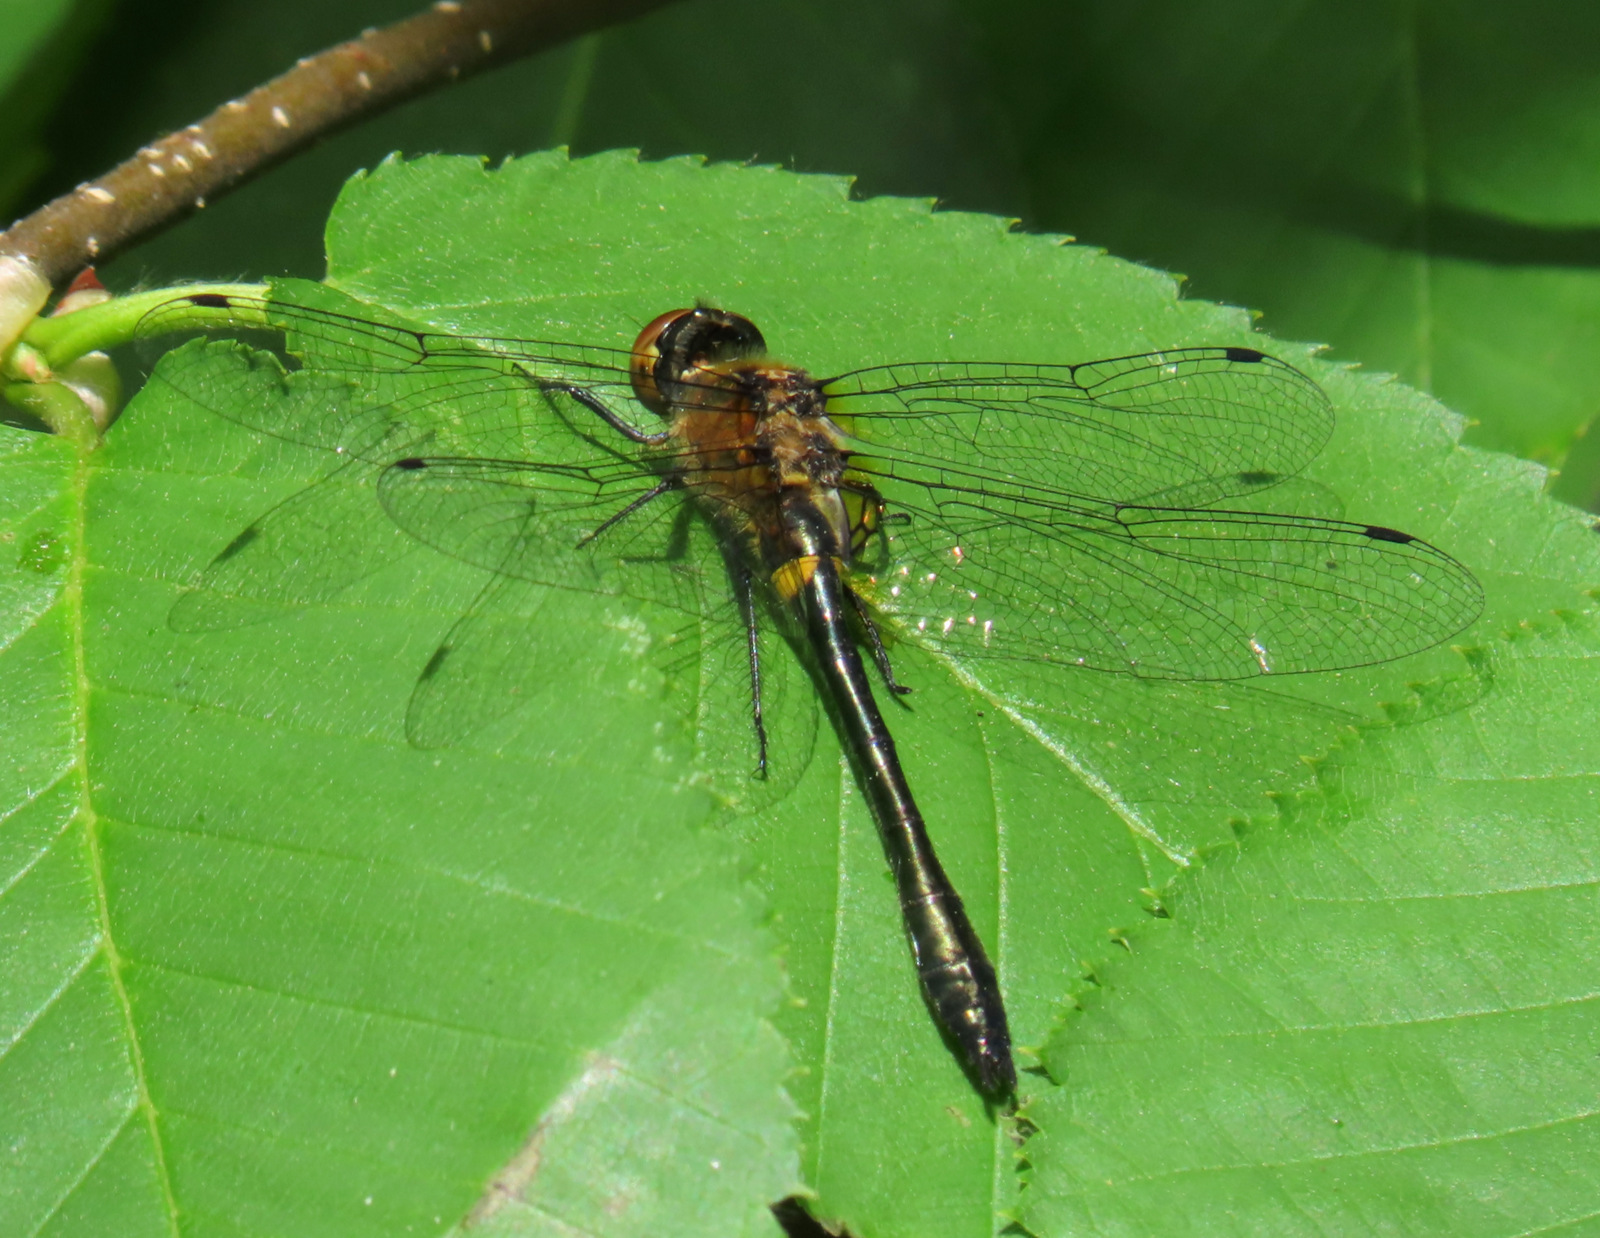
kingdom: Animalia
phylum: Arthropoda
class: Insecta
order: Odonata
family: Corduliidae
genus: Dorocordulia
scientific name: Dorocordulia libera
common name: Racket-tailed emerald
